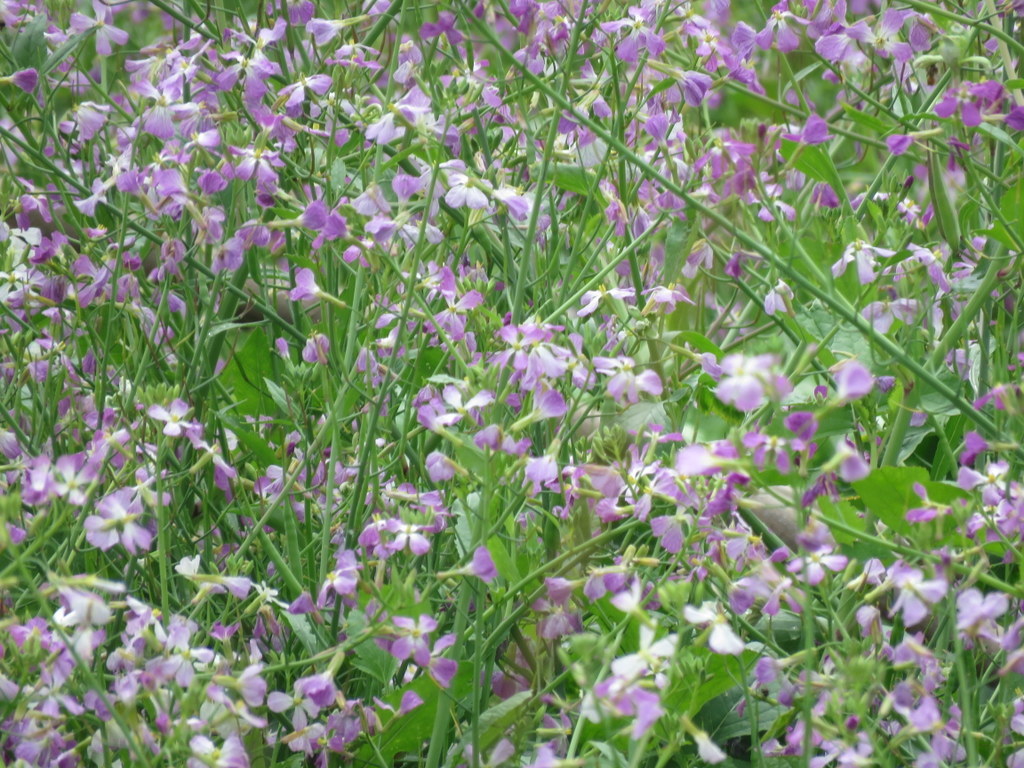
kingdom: Plantae
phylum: Tracheophyta
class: Magnoliopsida
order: Brassicales
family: Brassicaceae
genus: Raphanus
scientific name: Raphanus sativus
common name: Cultivated radish
